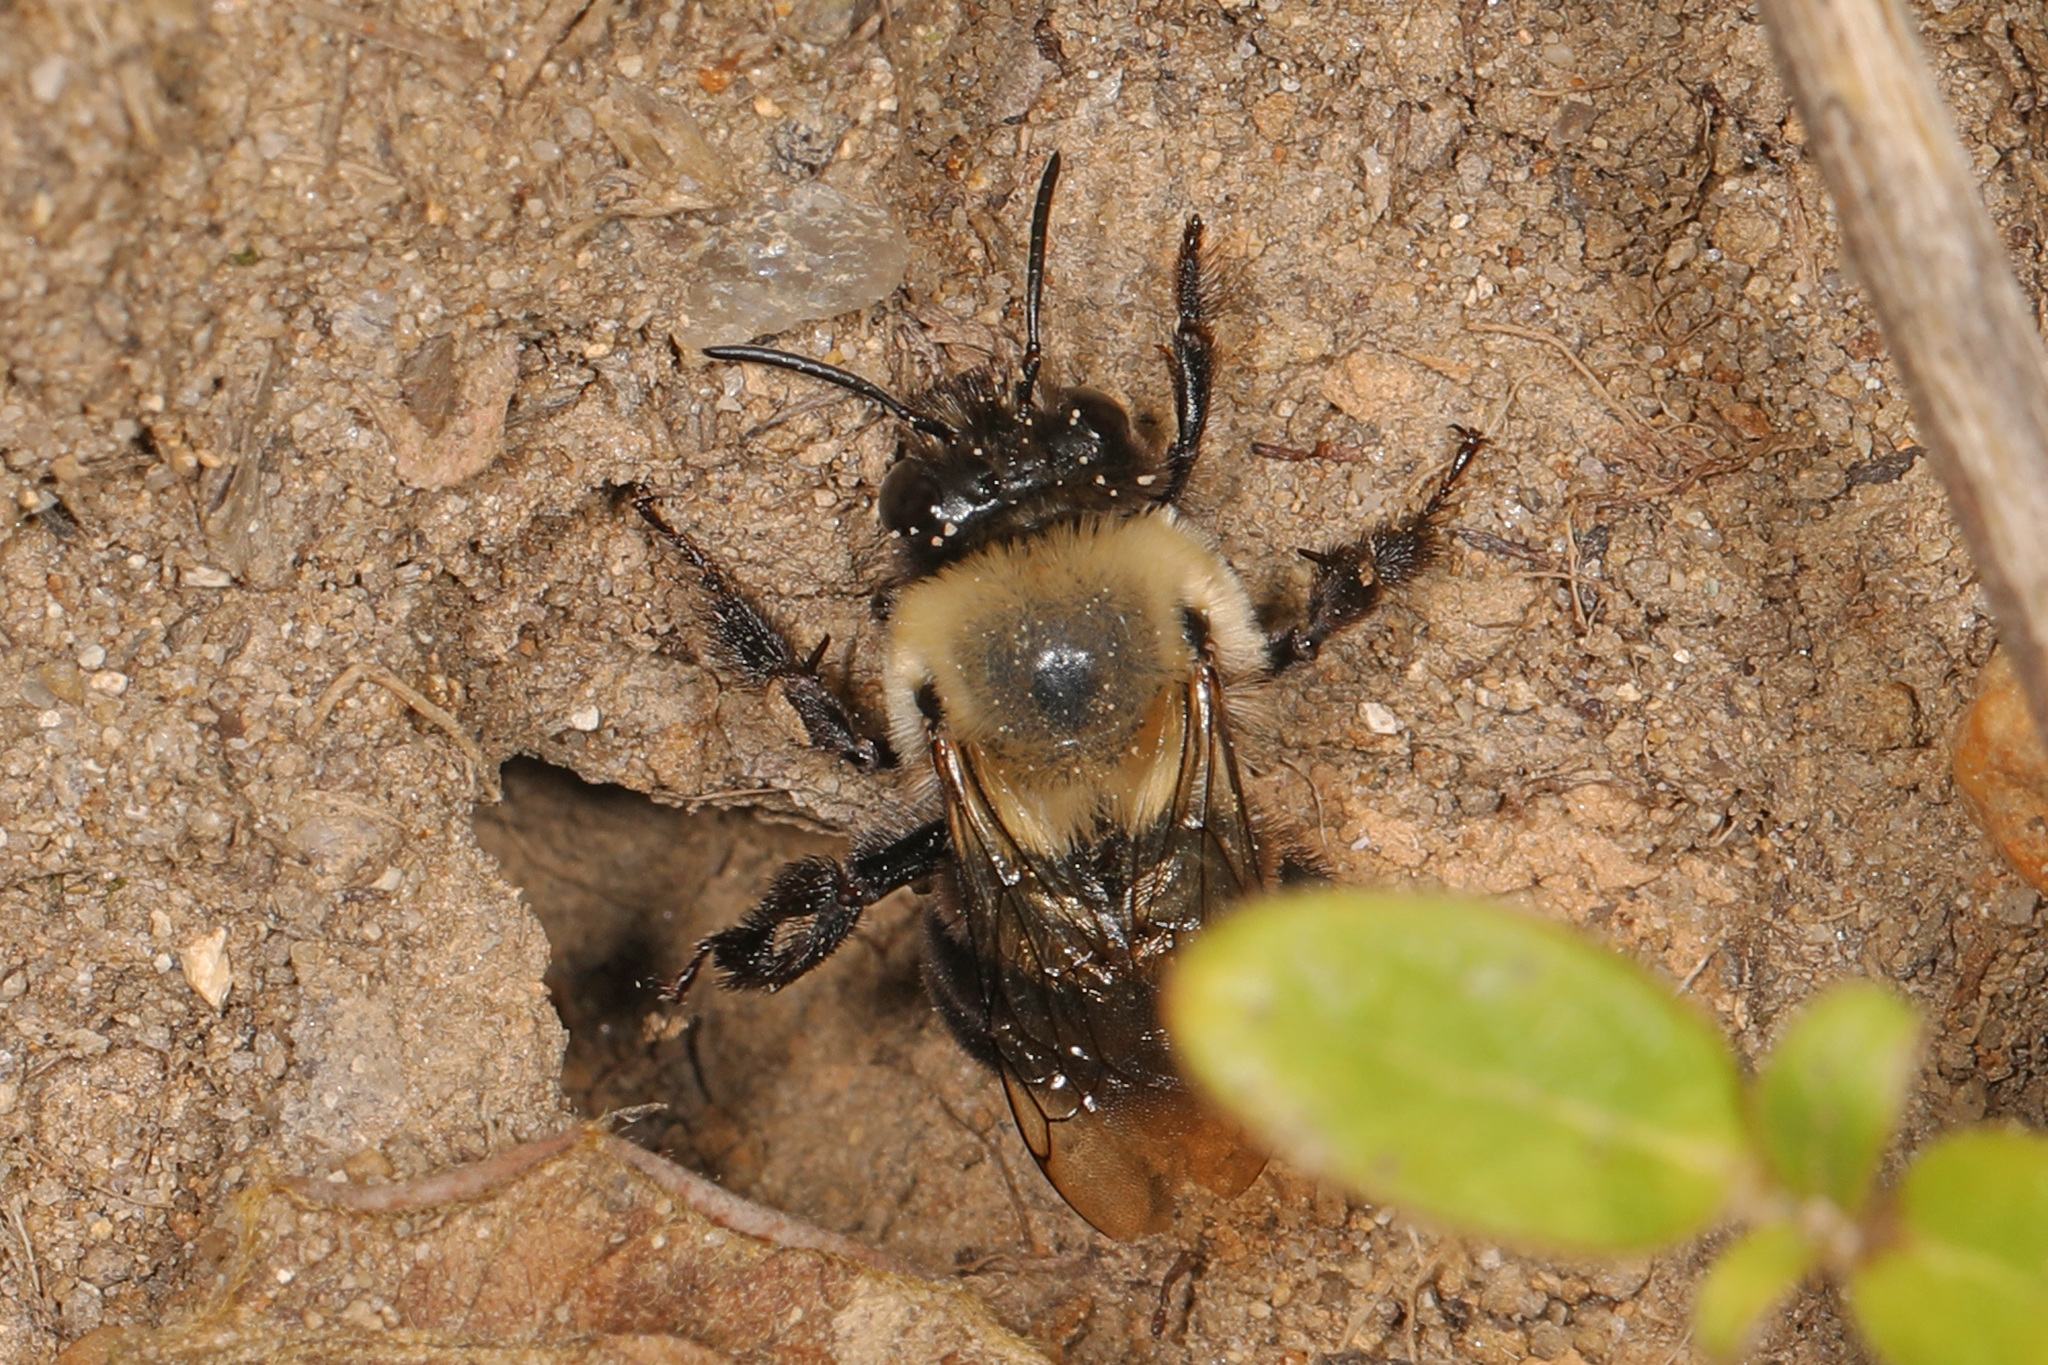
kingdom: Animalia
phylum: Arthropoda
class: Insecta
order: Hymenoptera
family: Apidae
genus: Anthophora
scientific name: Anthophora abrupta
